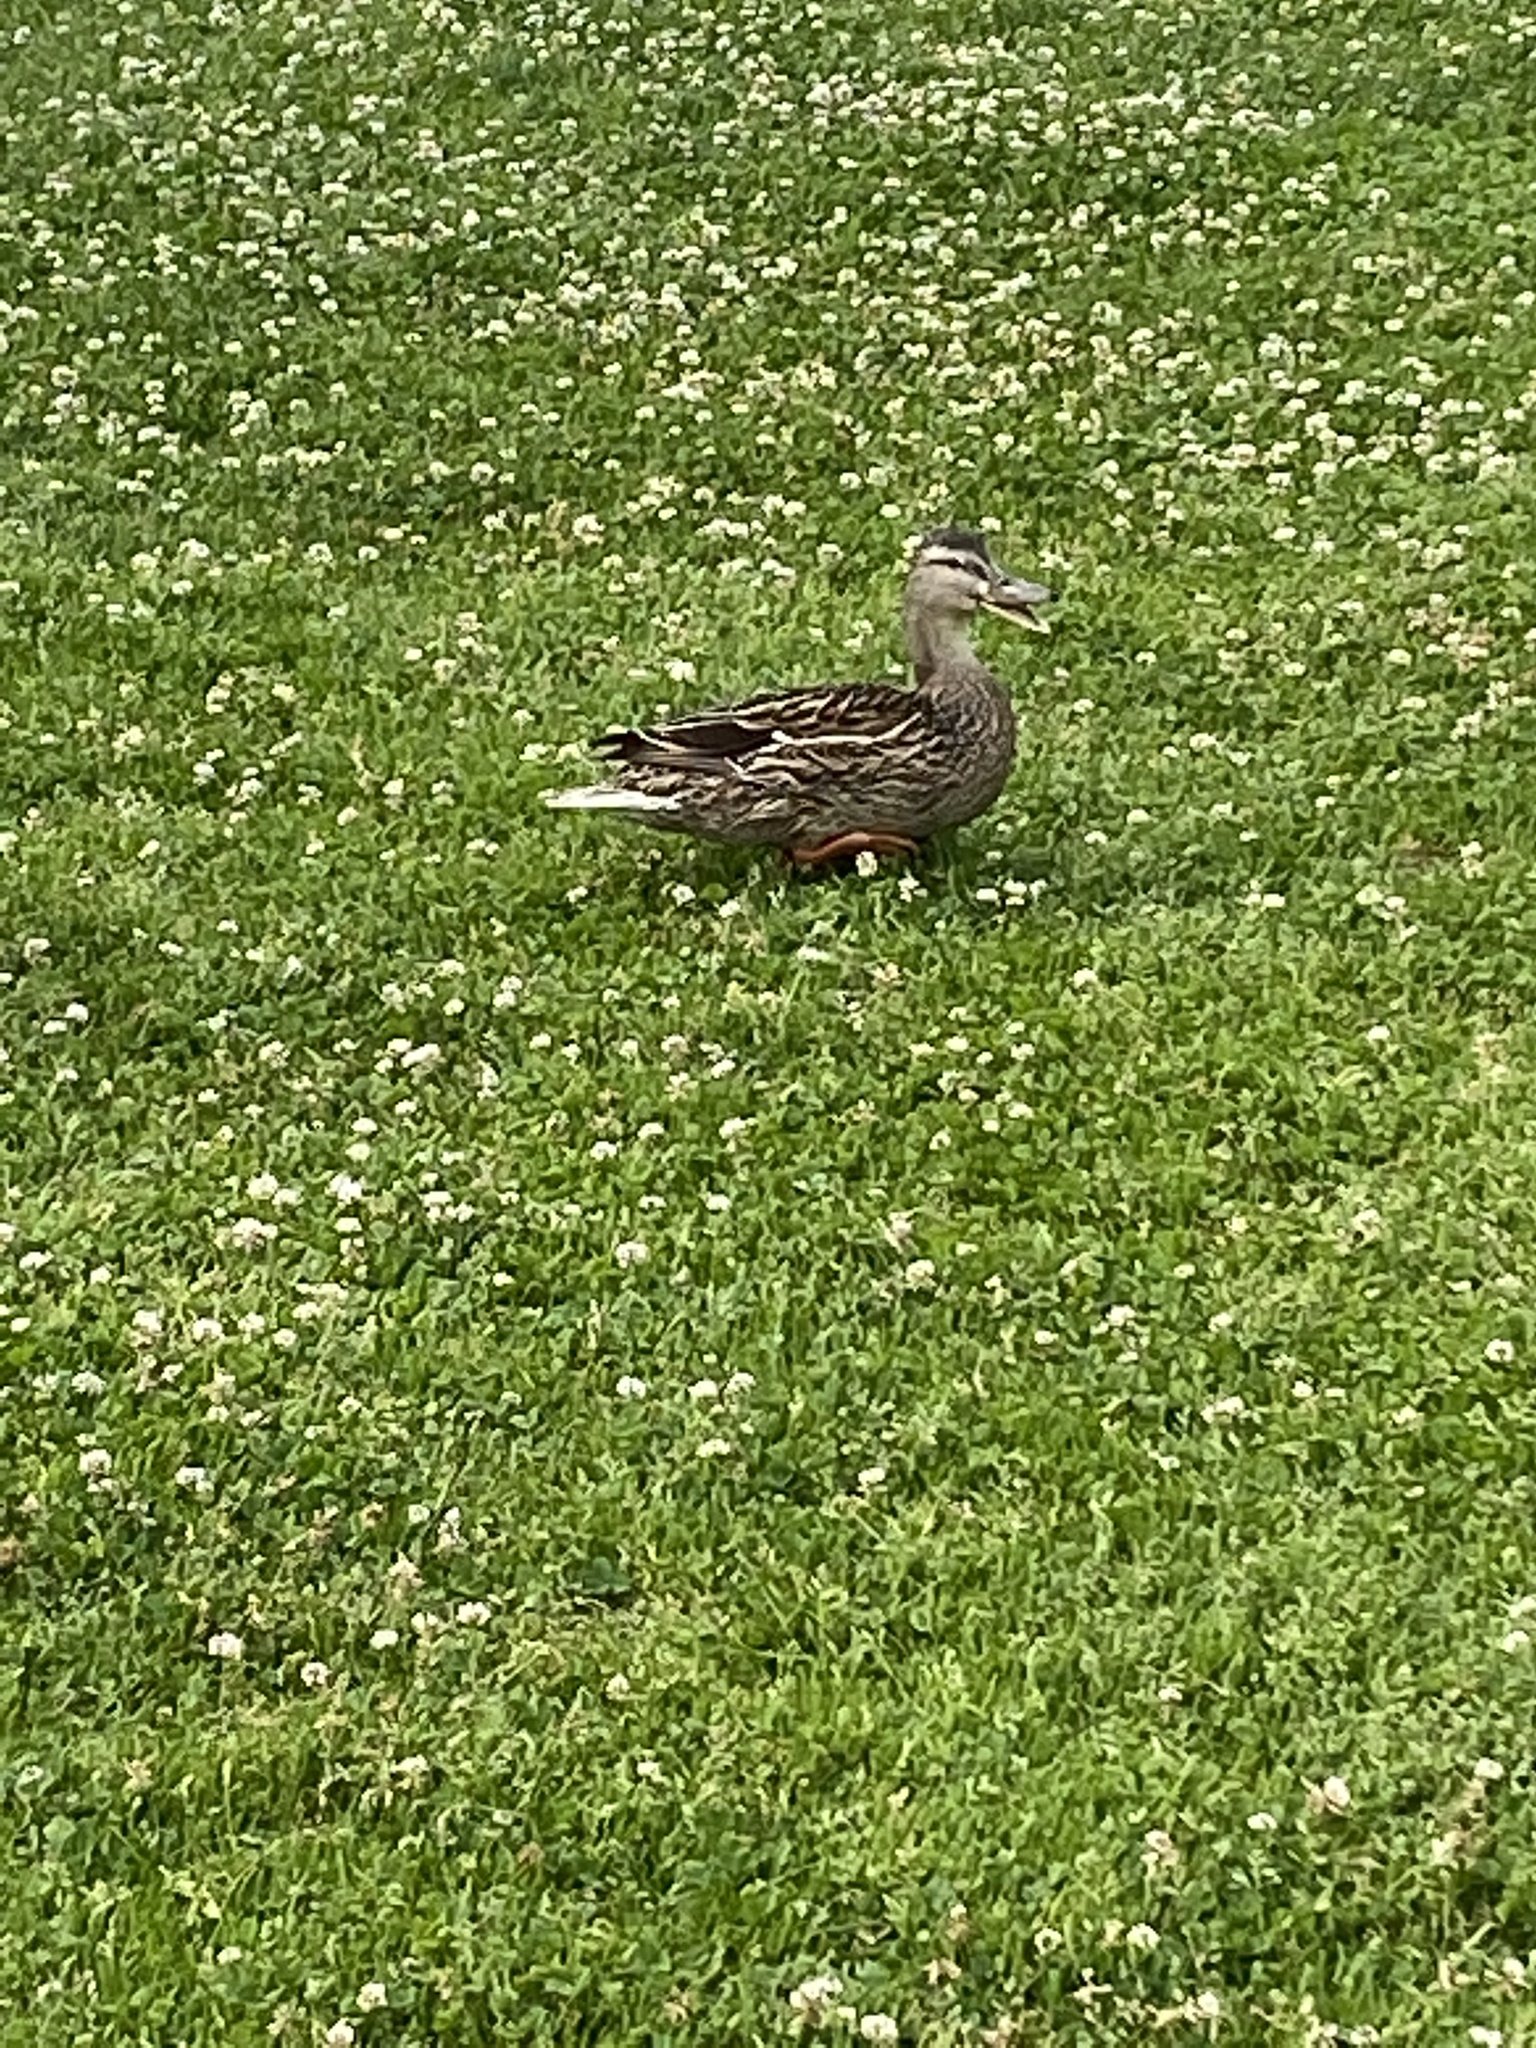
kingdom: Animalia
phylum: Chordata
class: Aves
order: Anseriformes
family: Anatidae
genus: Anas
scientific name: Anas platyrhynchos
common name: Mallard
